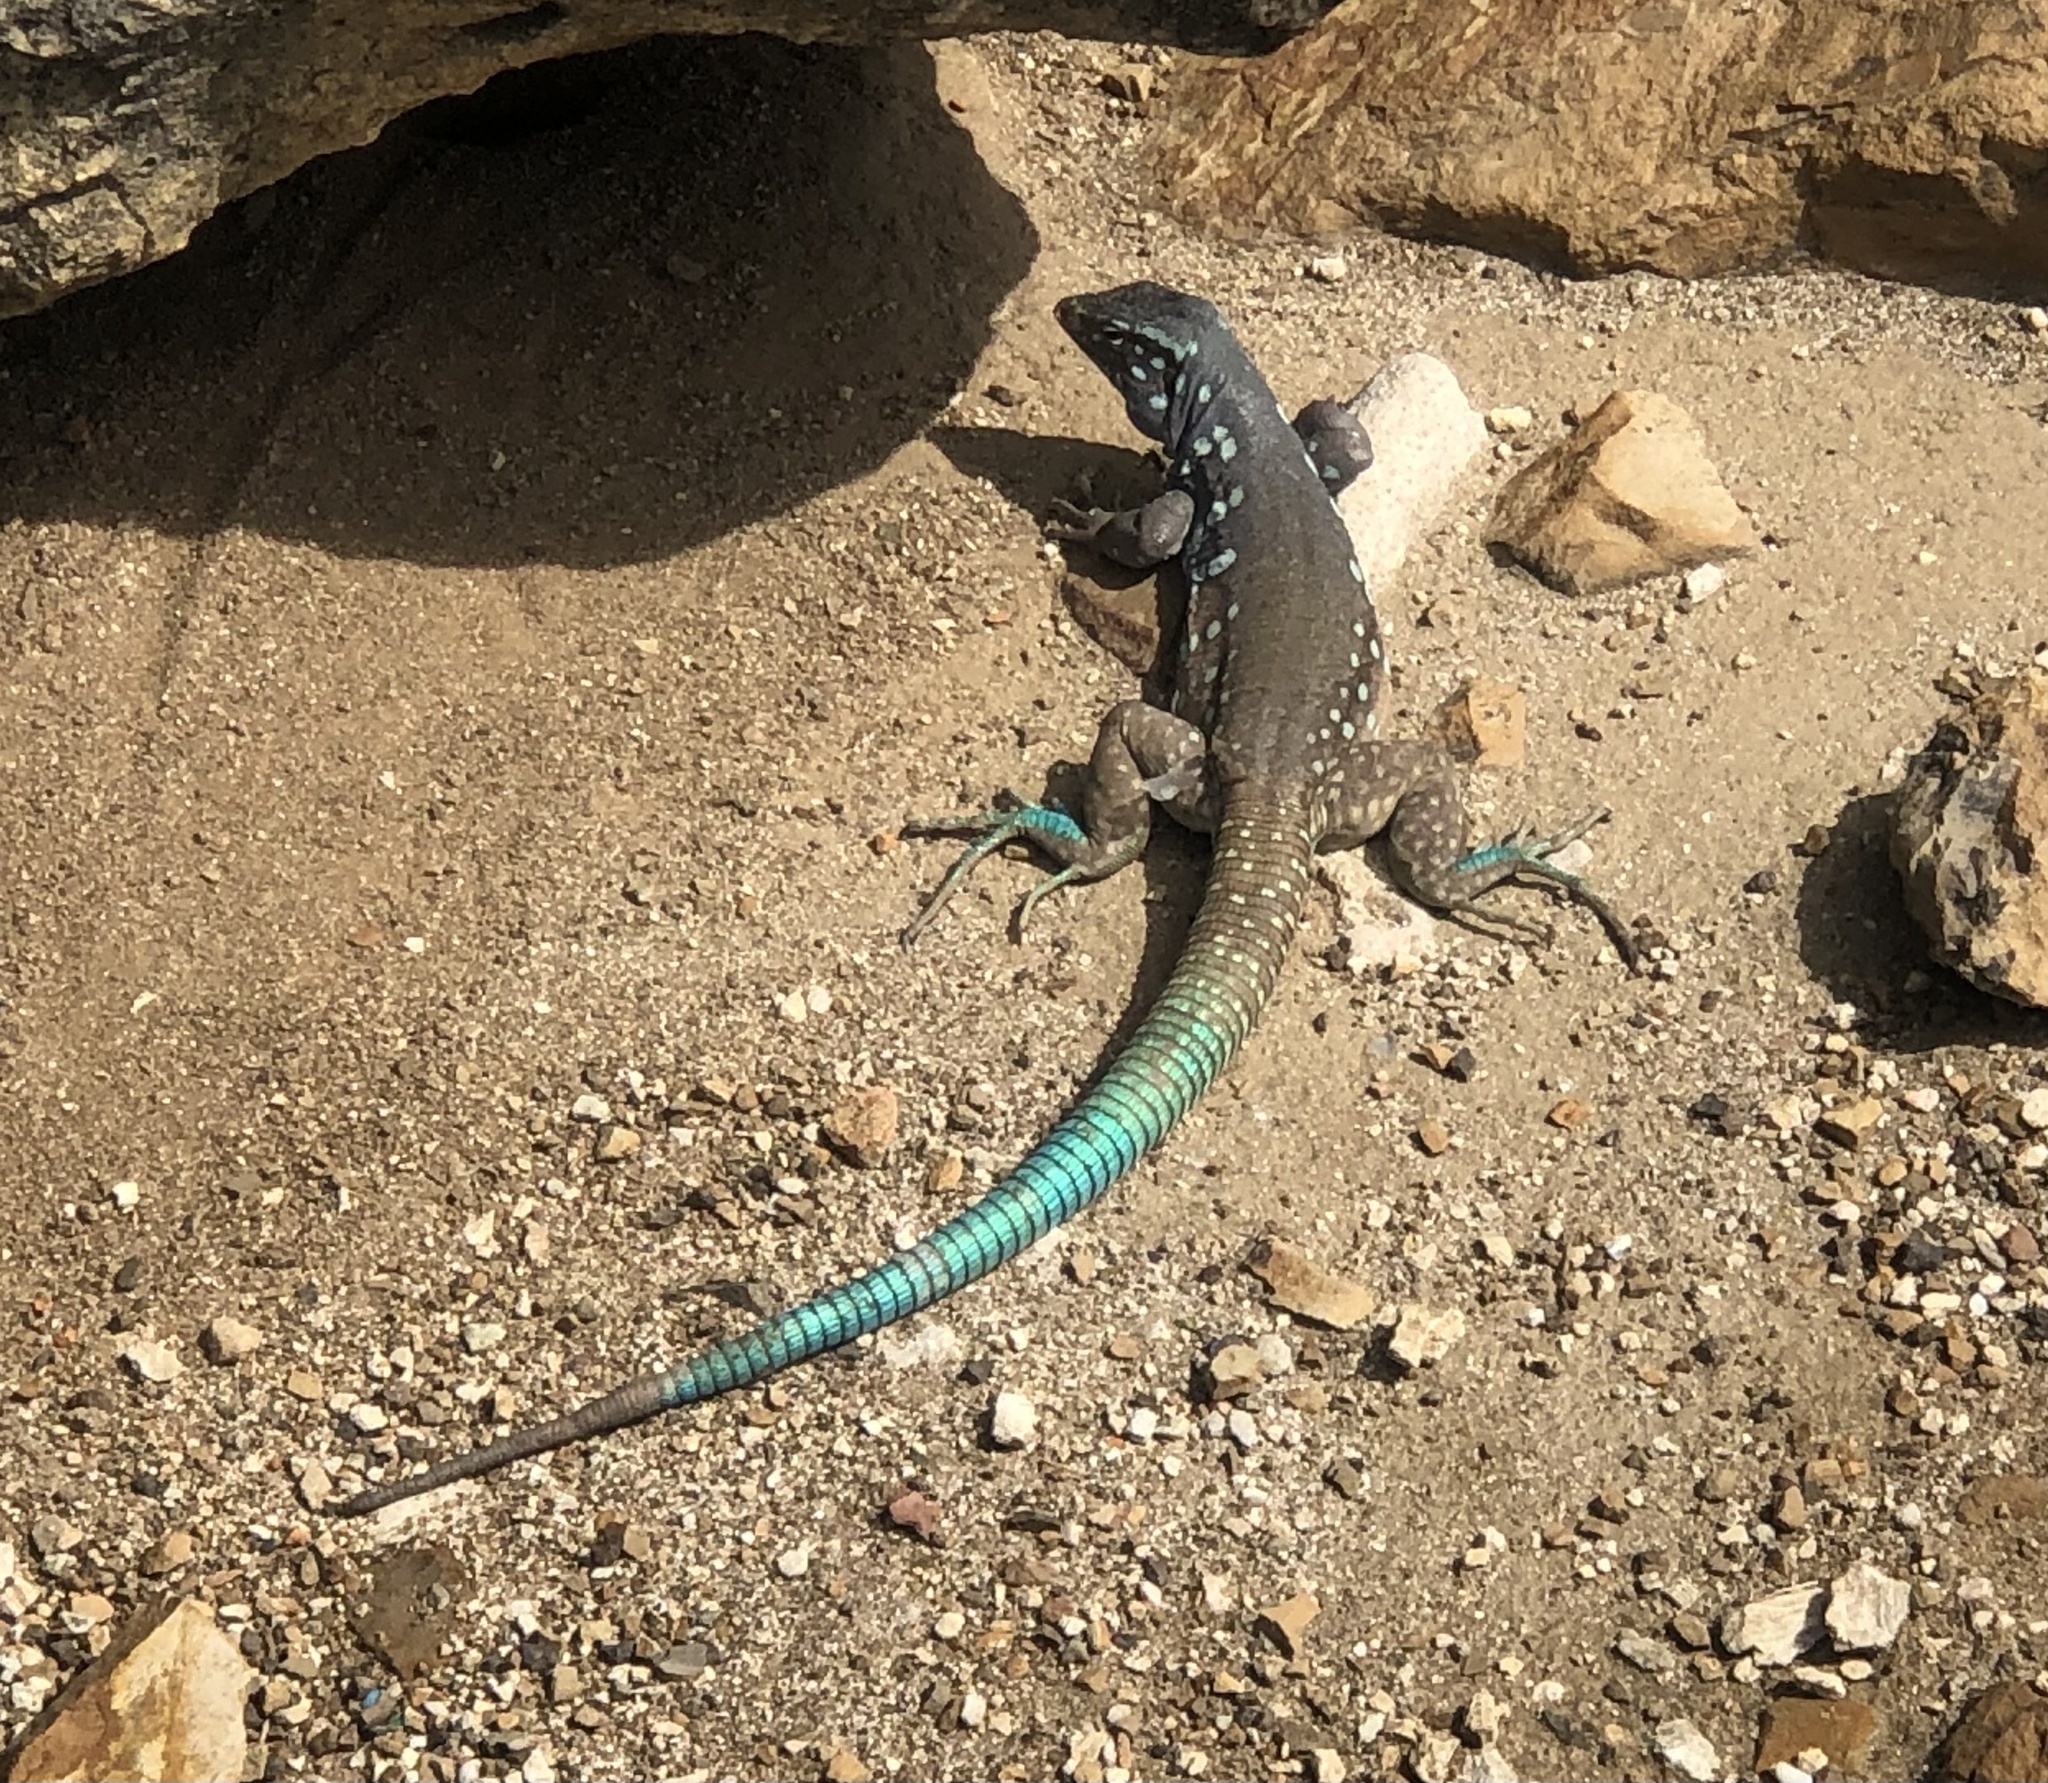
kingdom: Animalia
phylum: Chordata
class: Squamata
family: Teiidae
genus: Cnemidophorus
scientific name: Cnemidophorus ruthveni
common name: Bonaire whiptail
